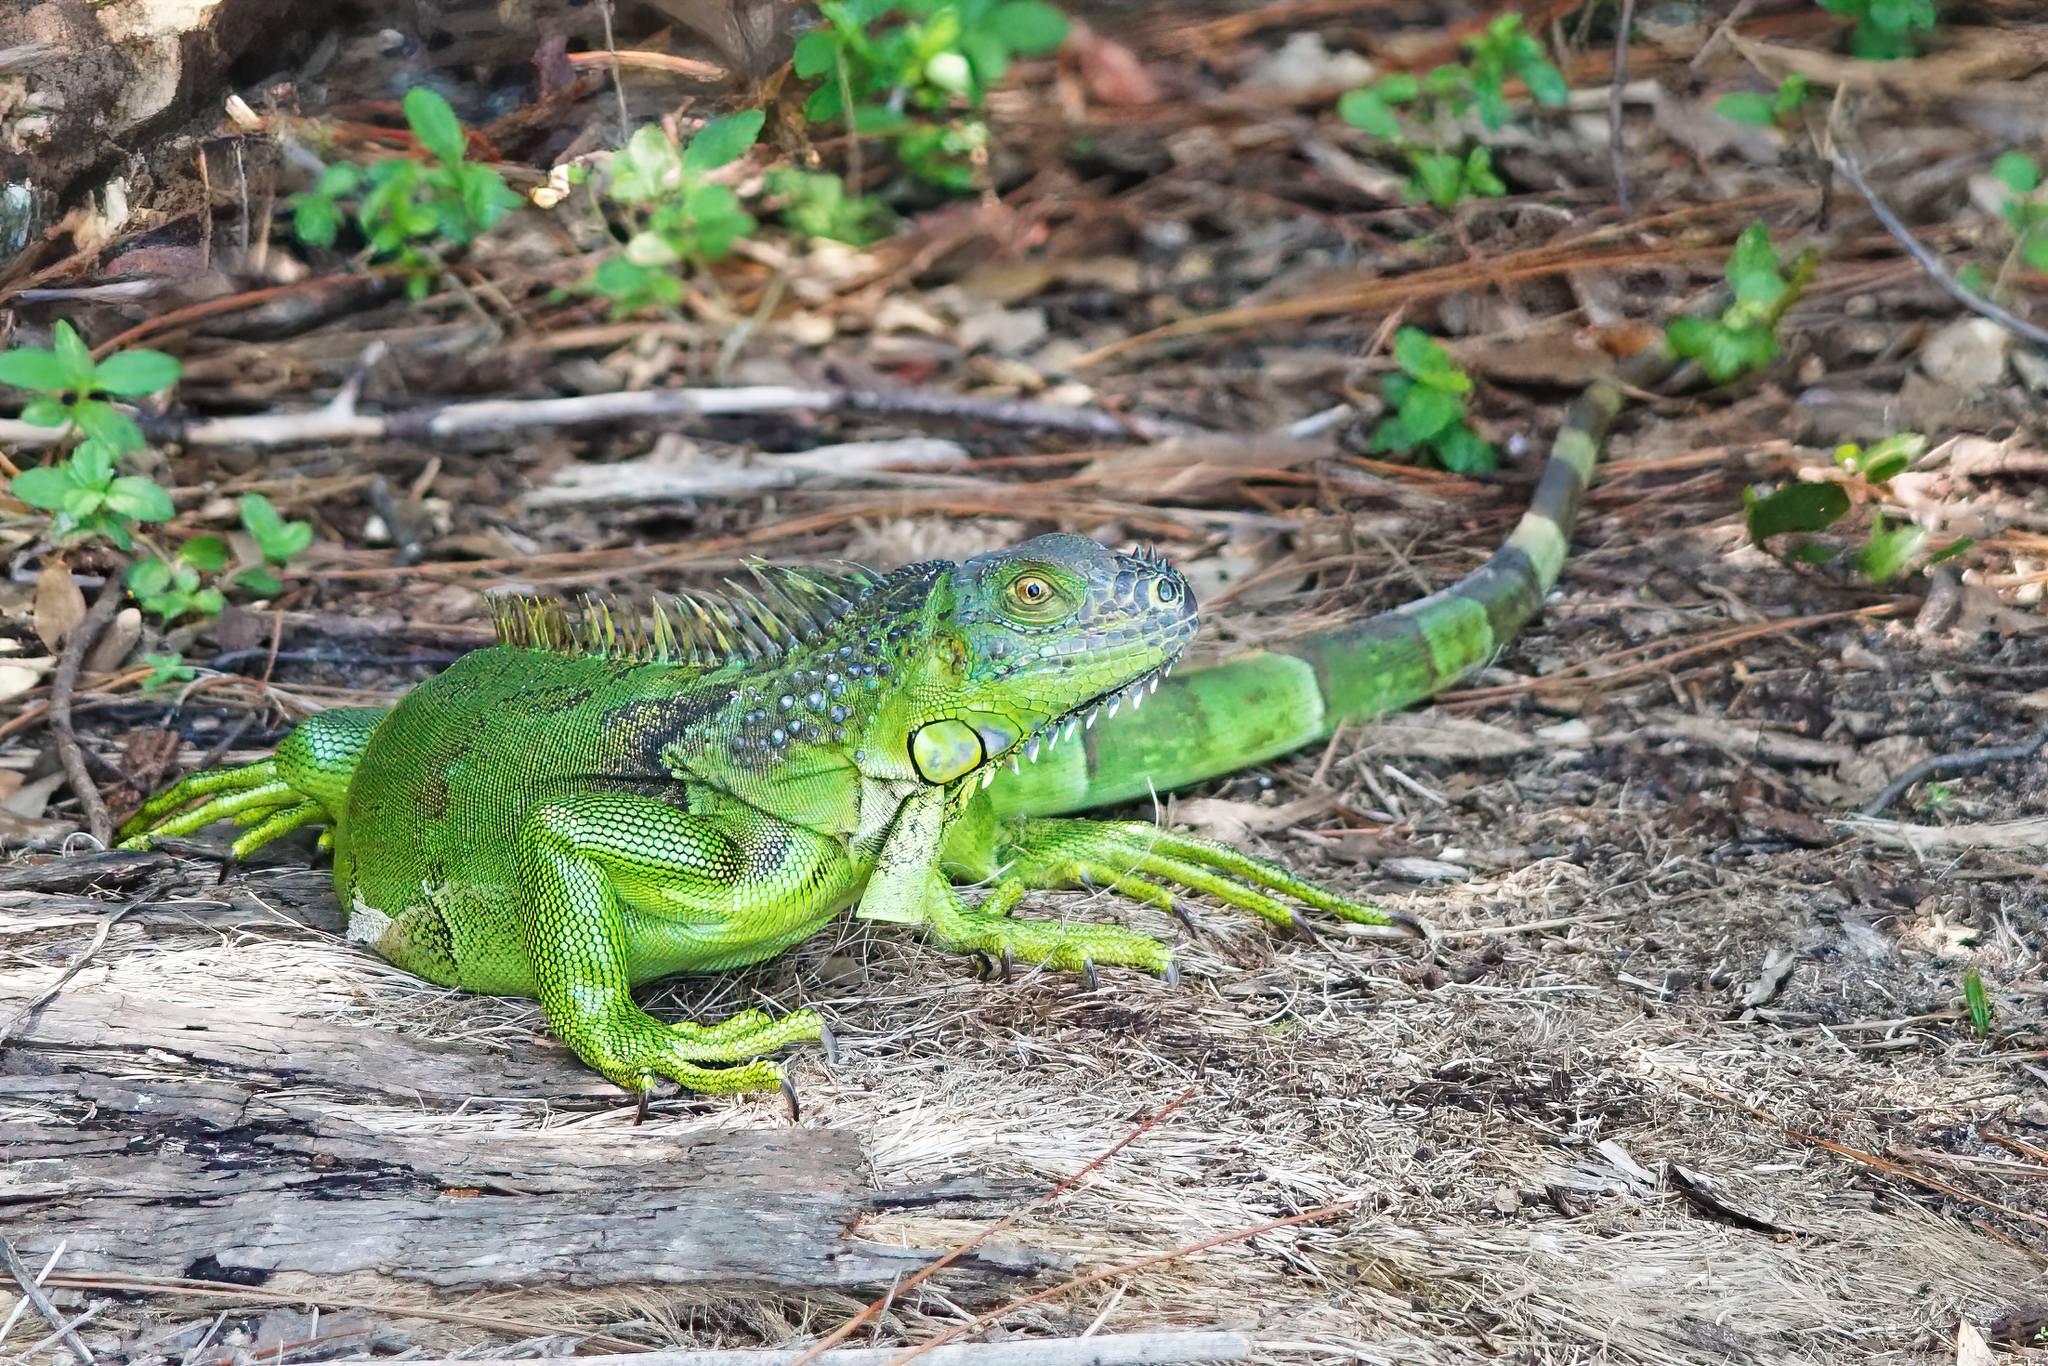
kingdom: Animalia
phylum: Chordata
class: Squamata
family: Iguanidae
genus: Iguana
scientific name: Iguana iguana
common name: Green iguana
